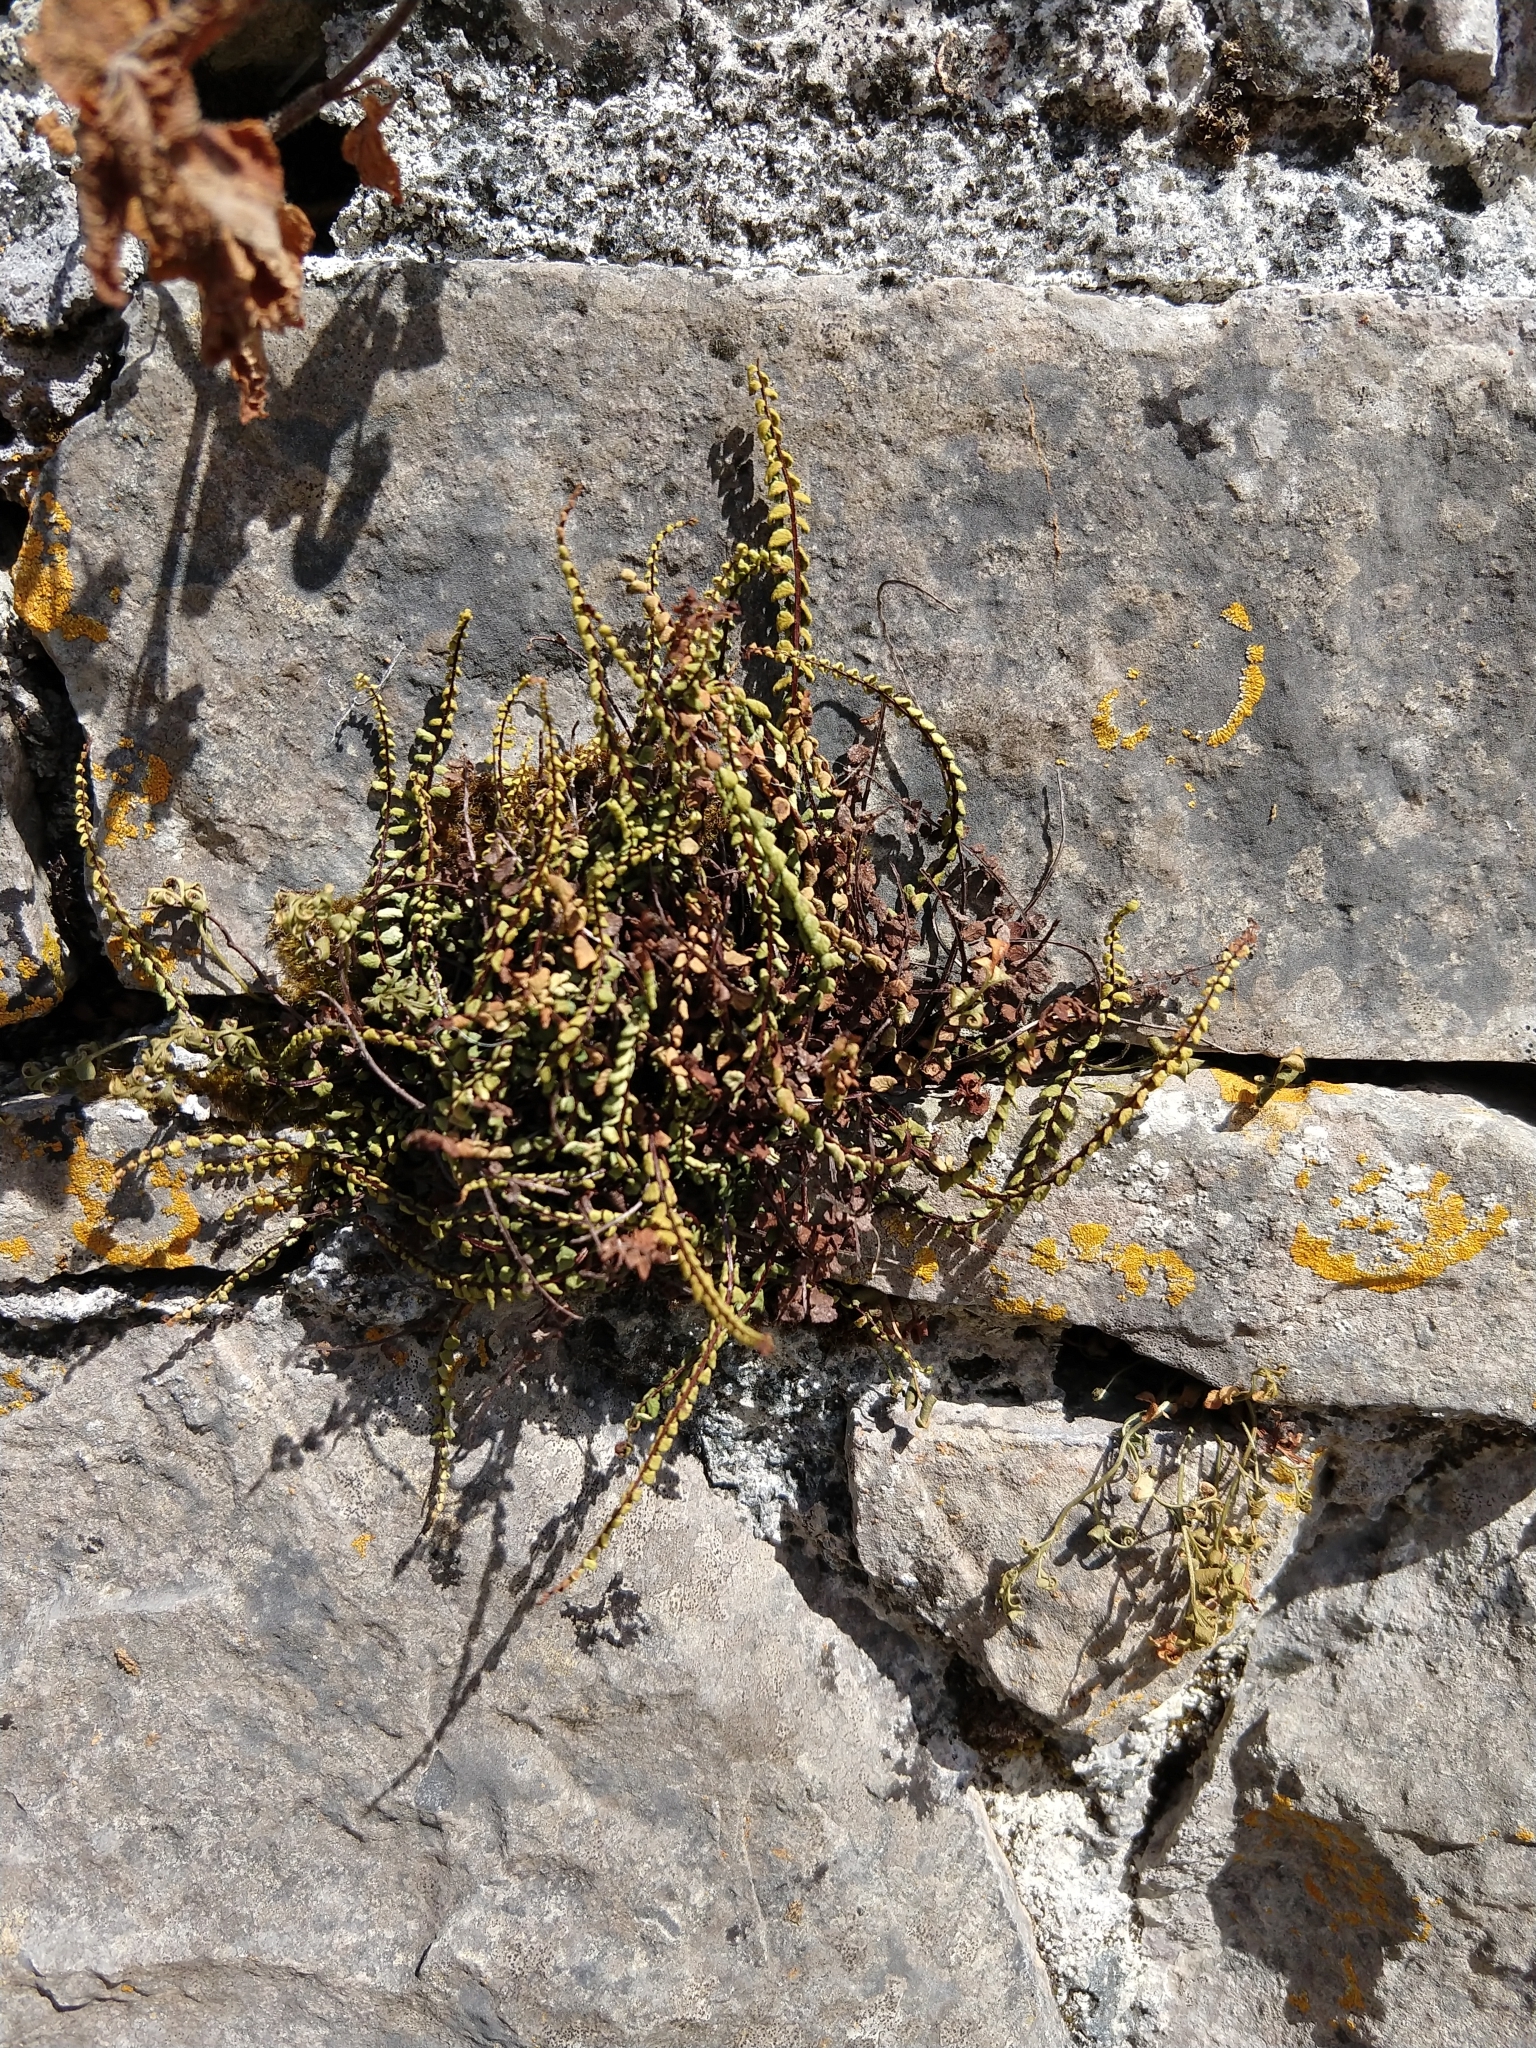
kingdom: Plantae
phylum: Tracheophyta
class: Polypodiopsida
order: Polypodiales
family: Aspleniaceae
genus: Asplenium
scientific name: Asplenium trichomanes
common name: Maidenhair spleenwort
